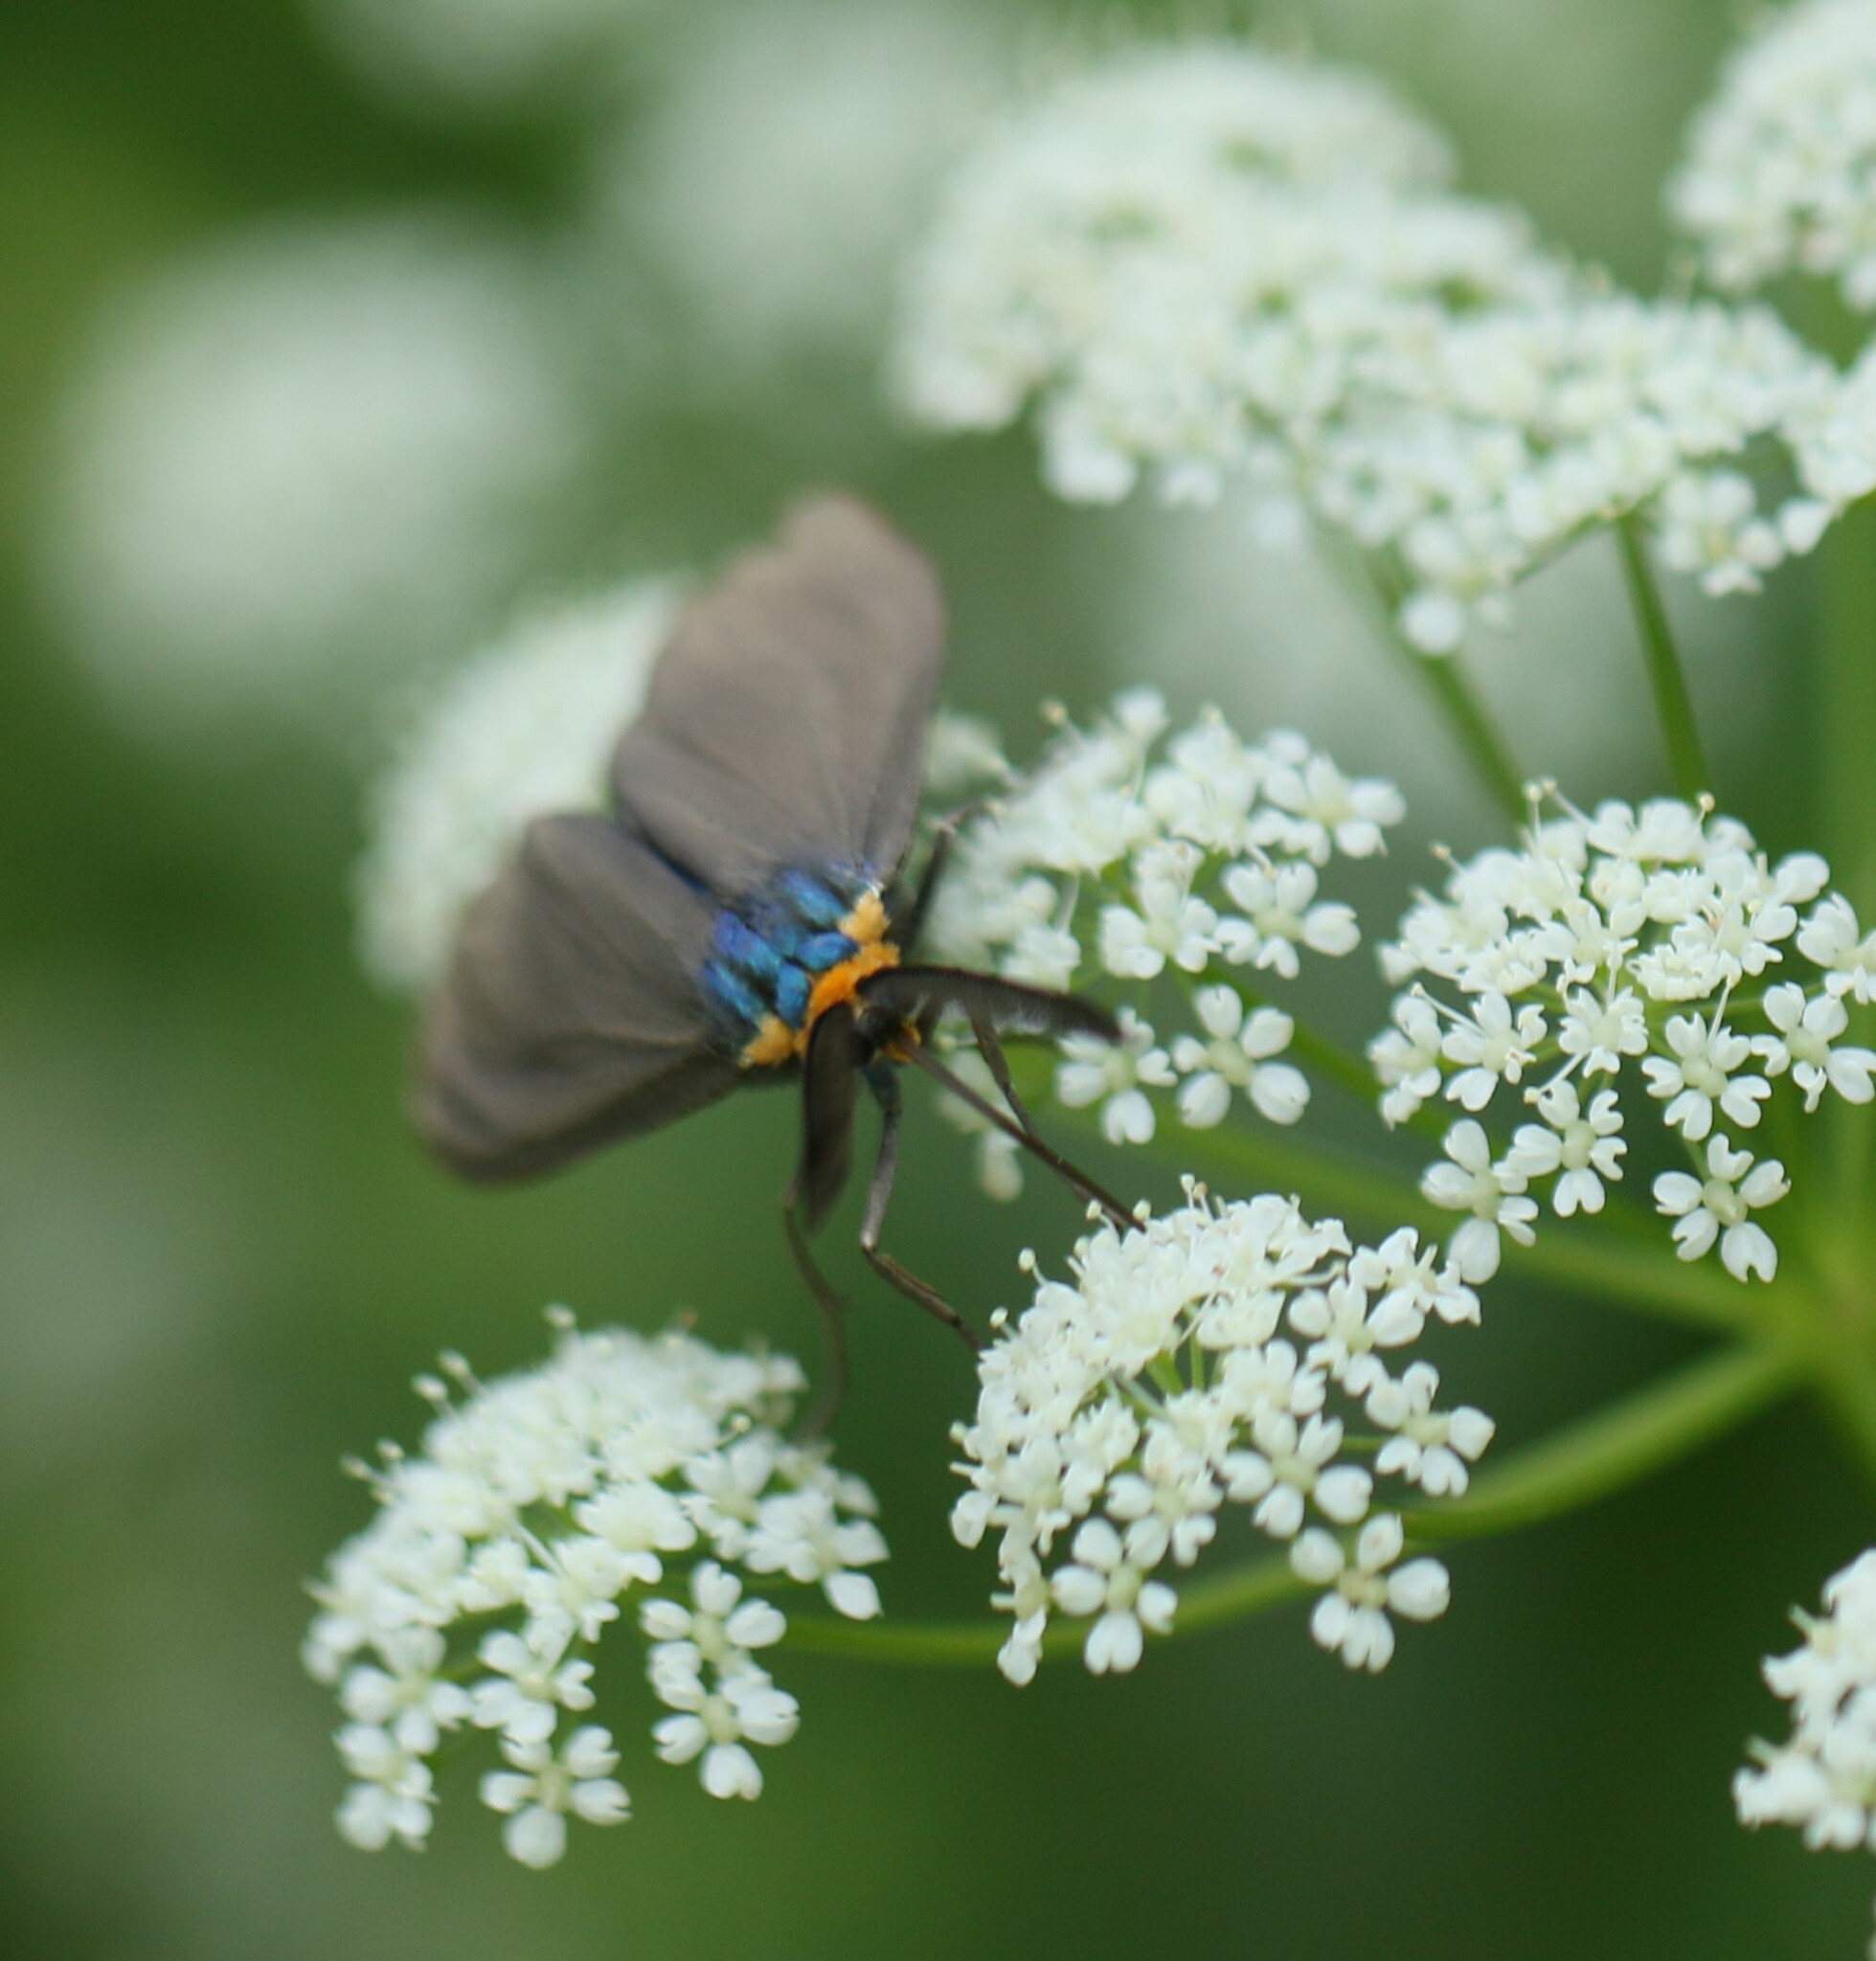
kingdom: Animalia
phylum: Arthropoda
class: Insecta
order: Lepidoptera
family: Erebidae
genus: Ctenucha
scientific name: Ctenucha virginica
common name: Virginia ctenucha moth
